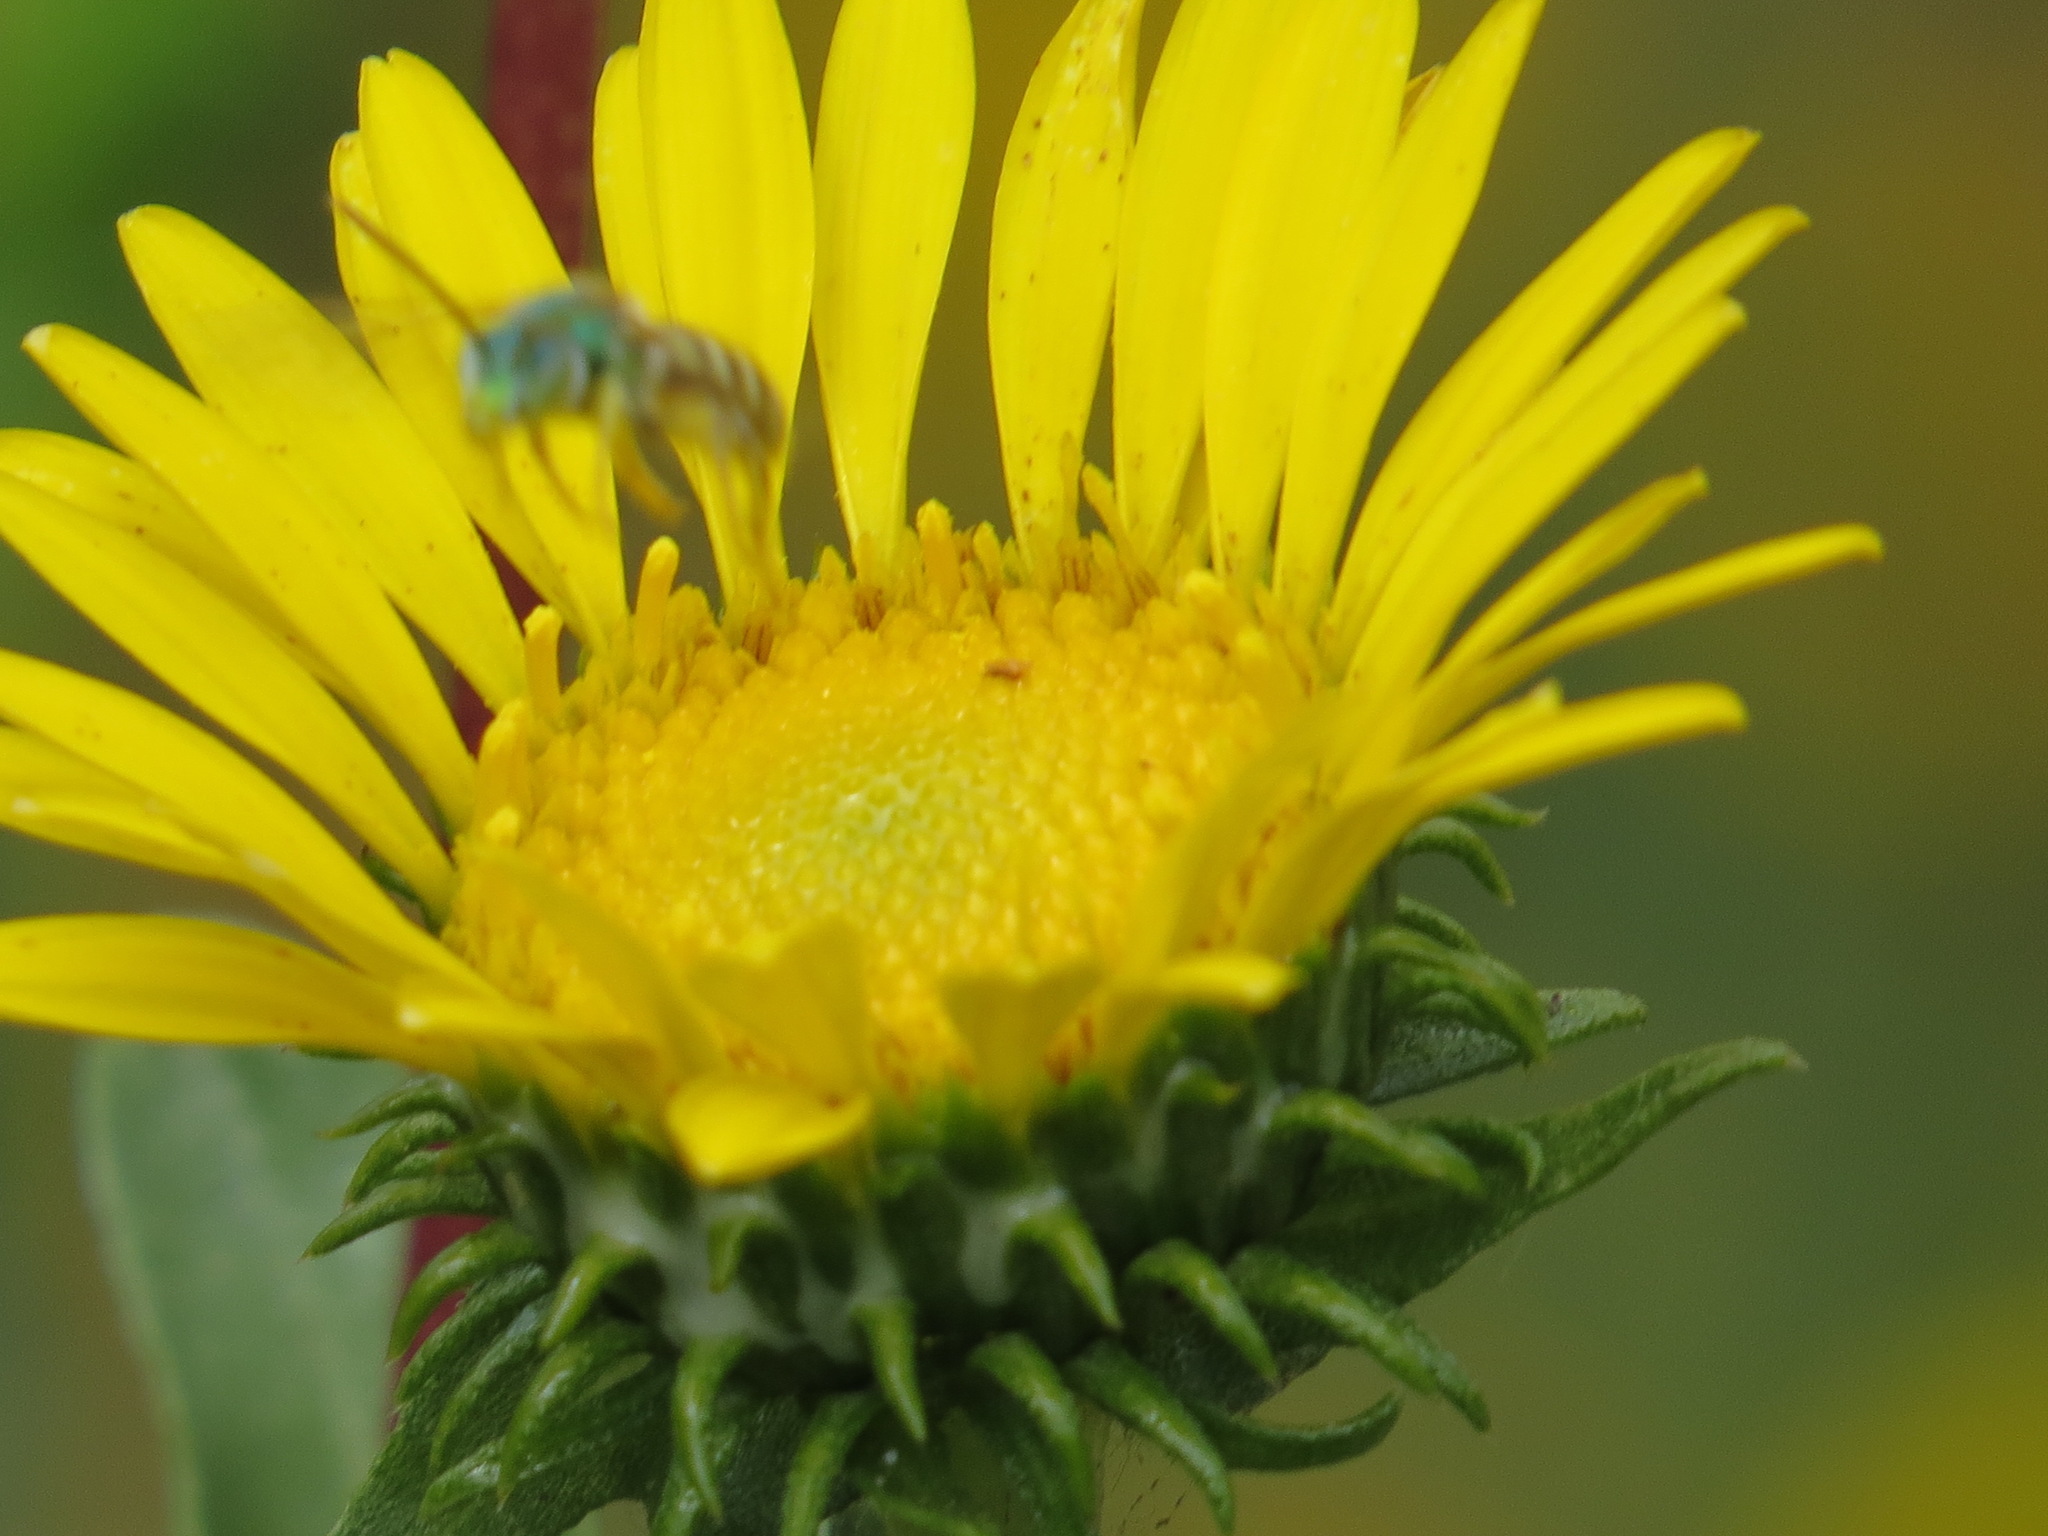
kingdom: Animalia
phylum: Arthropoda
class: Insecta
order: Hymenoptera
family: Halictidae
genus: Agapostemon
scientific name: Agapostemon texanus
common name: Texas striped sweat bee
